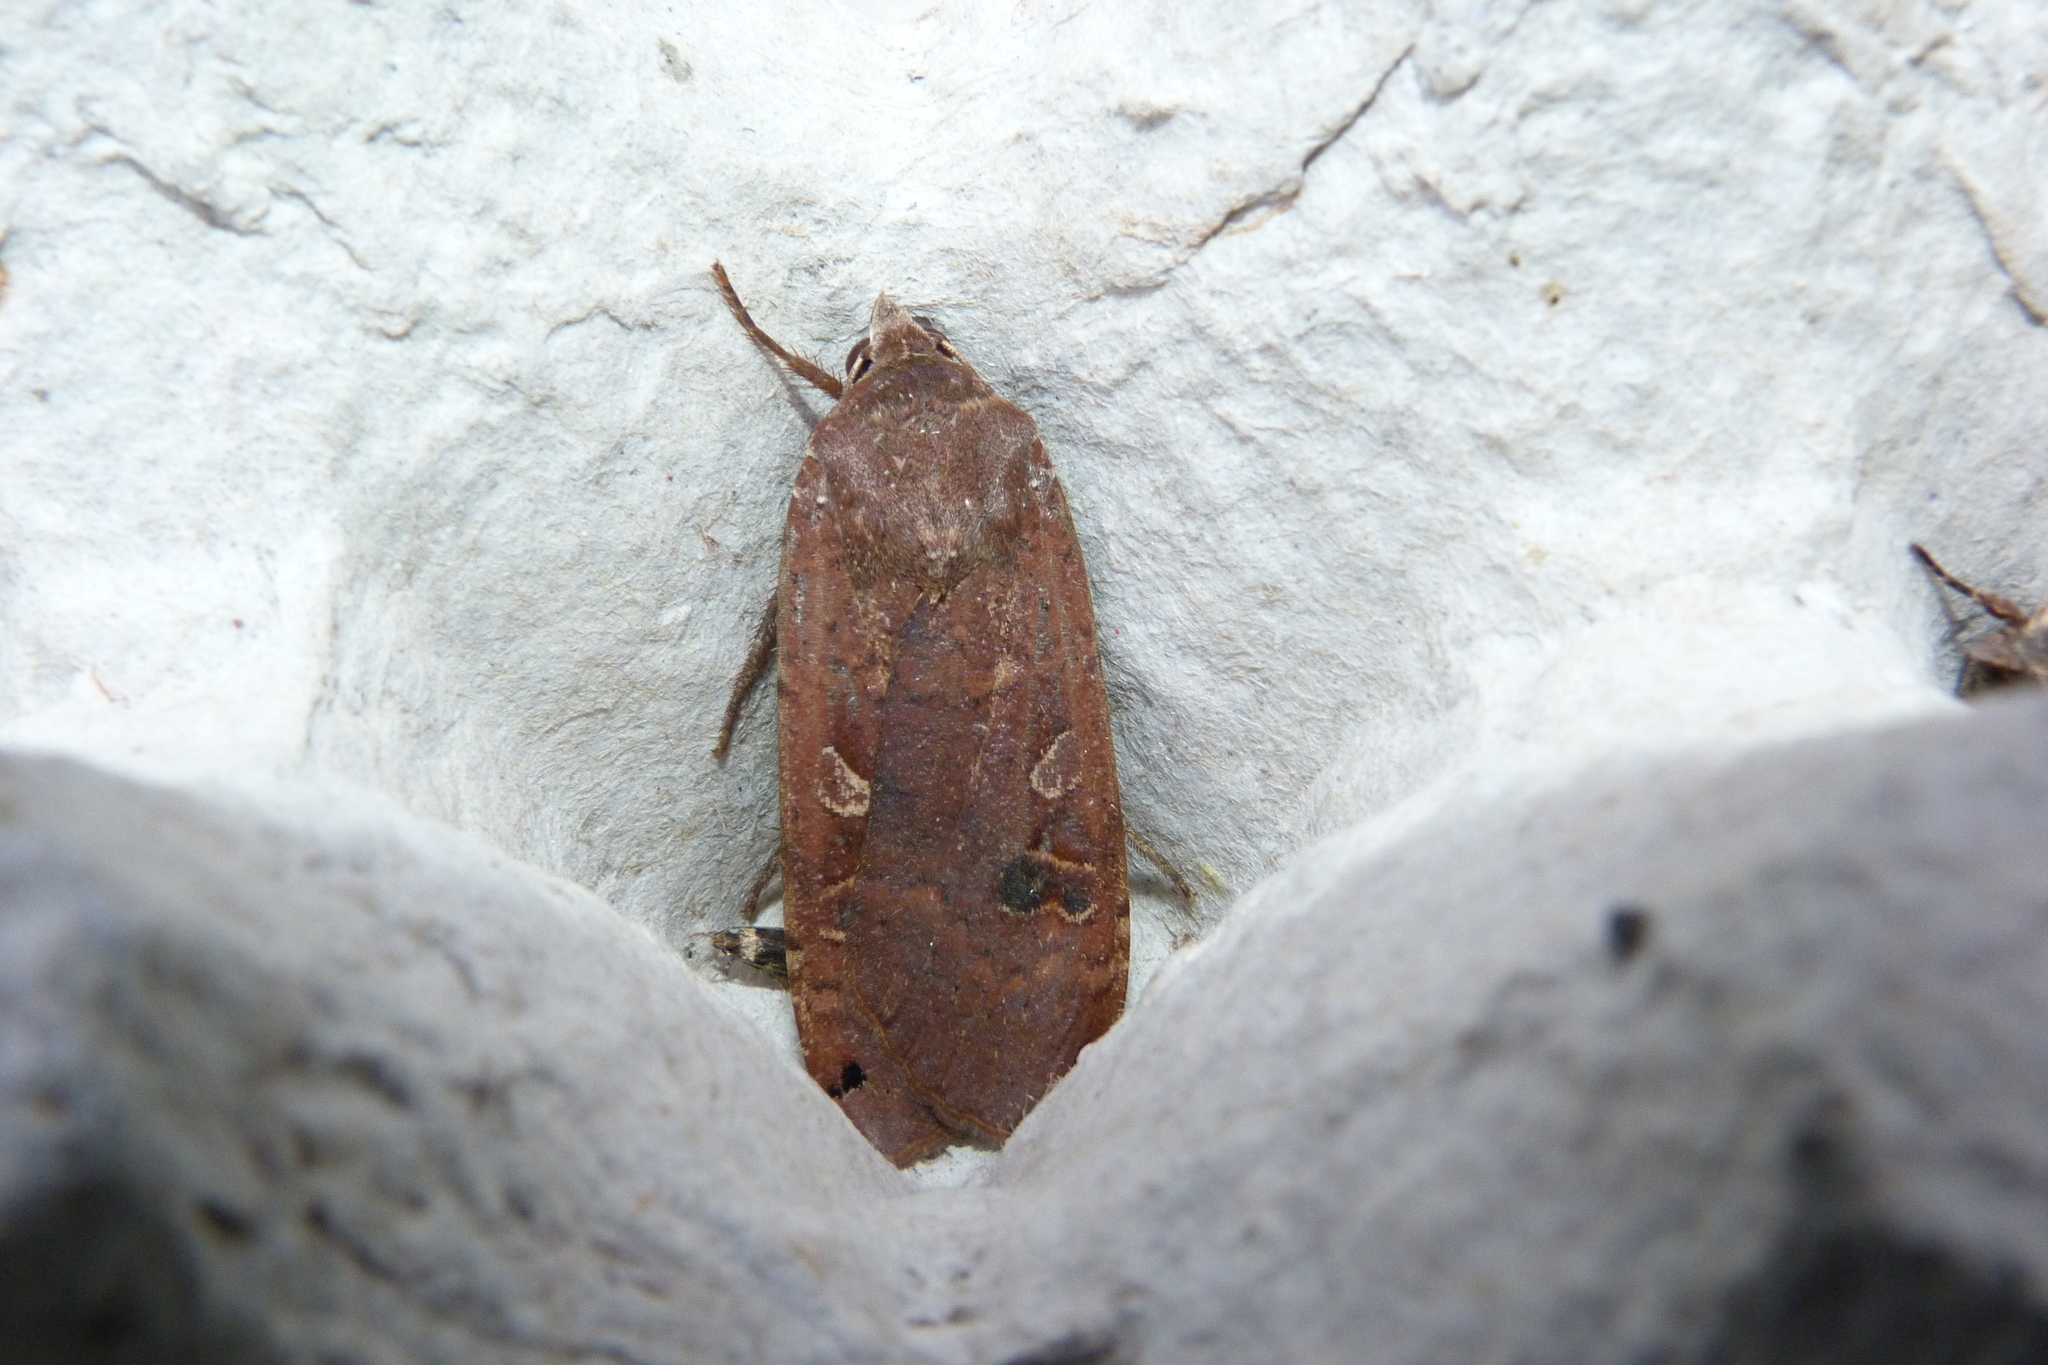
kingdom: Animalia
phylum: Arthropoda
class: Insecta
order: Lepidoptera
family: Noctuidae
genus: Noctua
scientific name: Noctua pronuba
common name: Large yellow underwing
